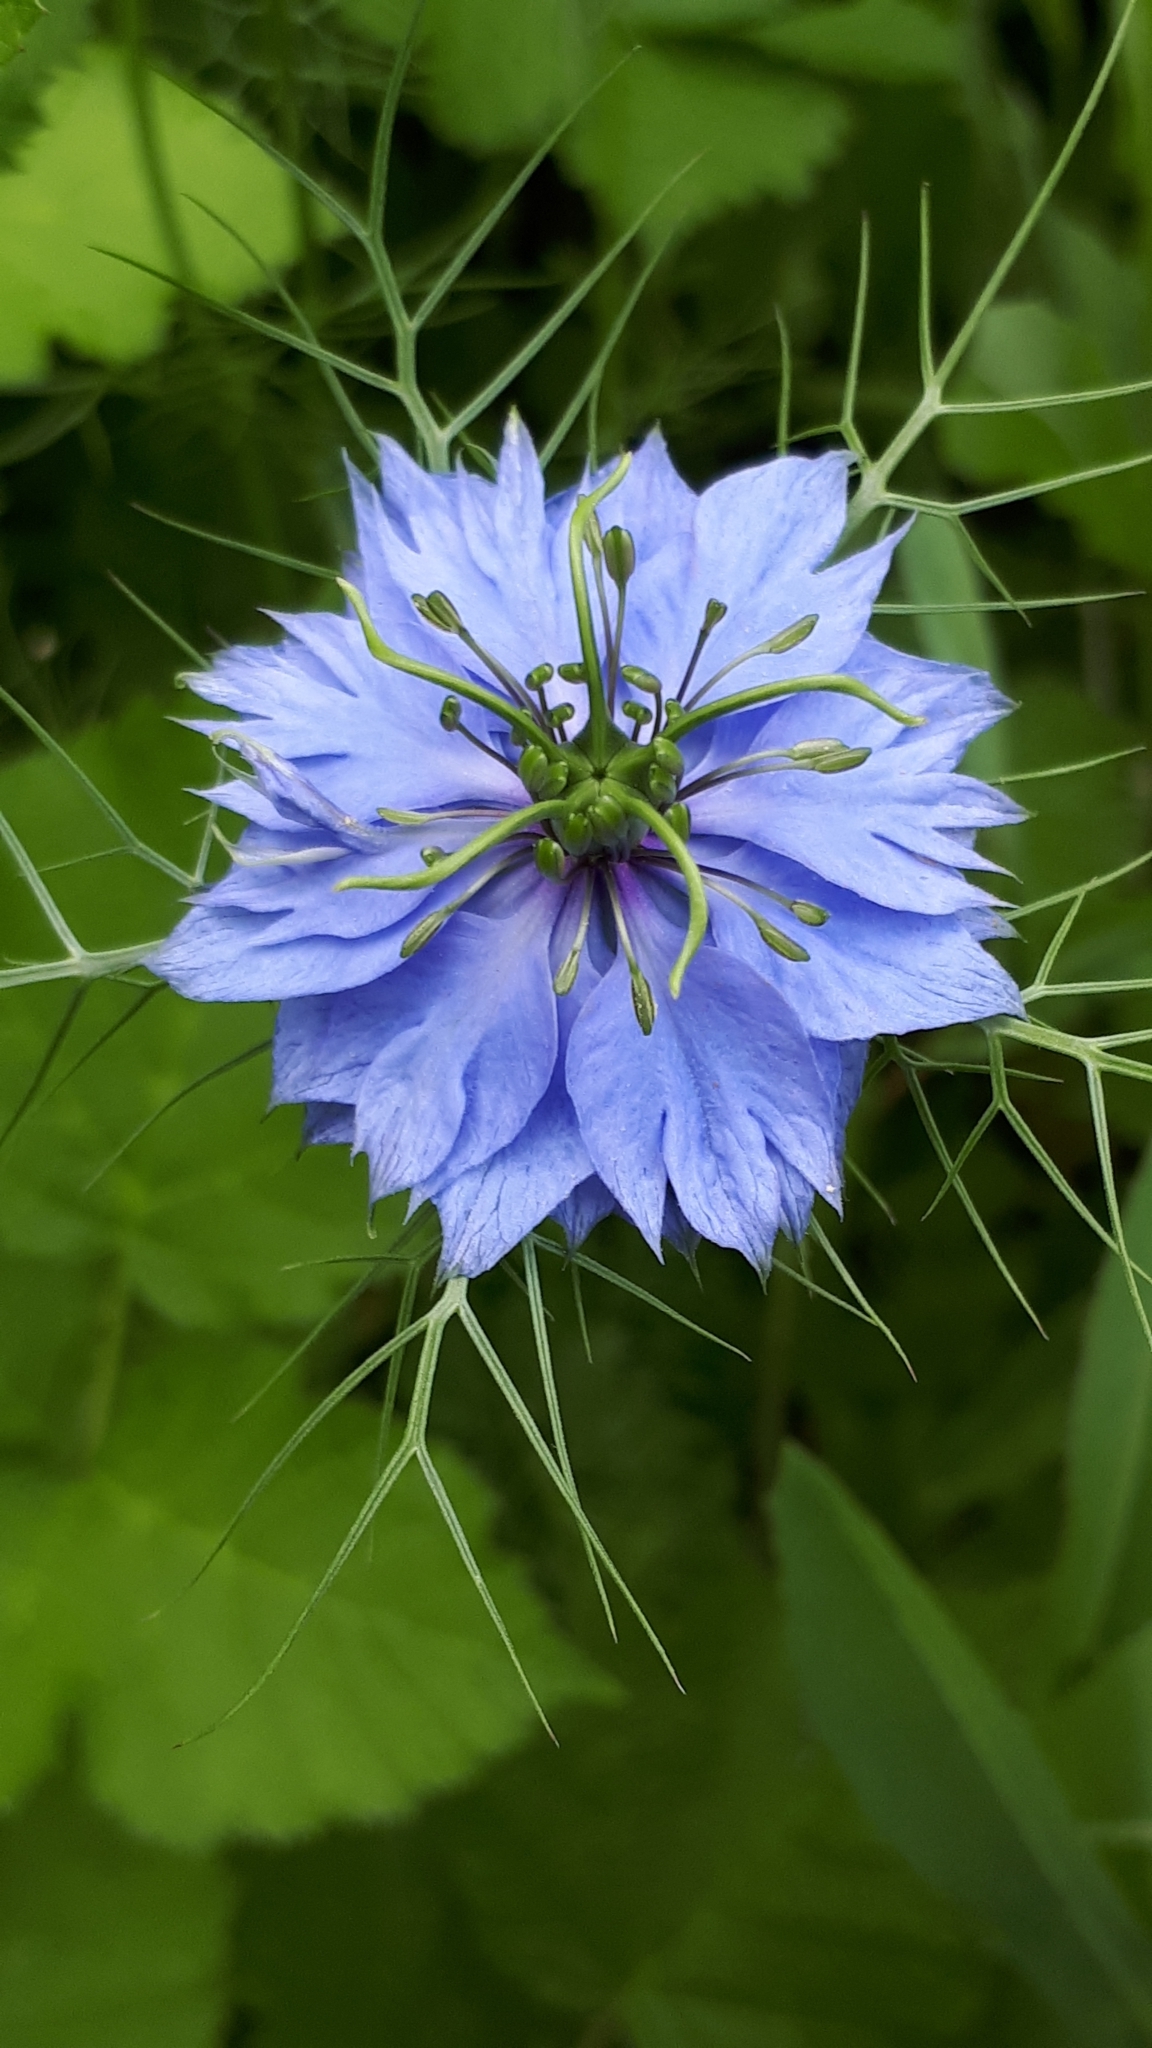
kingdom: Plantae
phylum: Tracheophyta
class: Magnoliopsida
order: Ranunculales
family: Ranunculaceae
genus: Nigella
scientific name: Nigella damascena
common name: Love-in-a-mist
